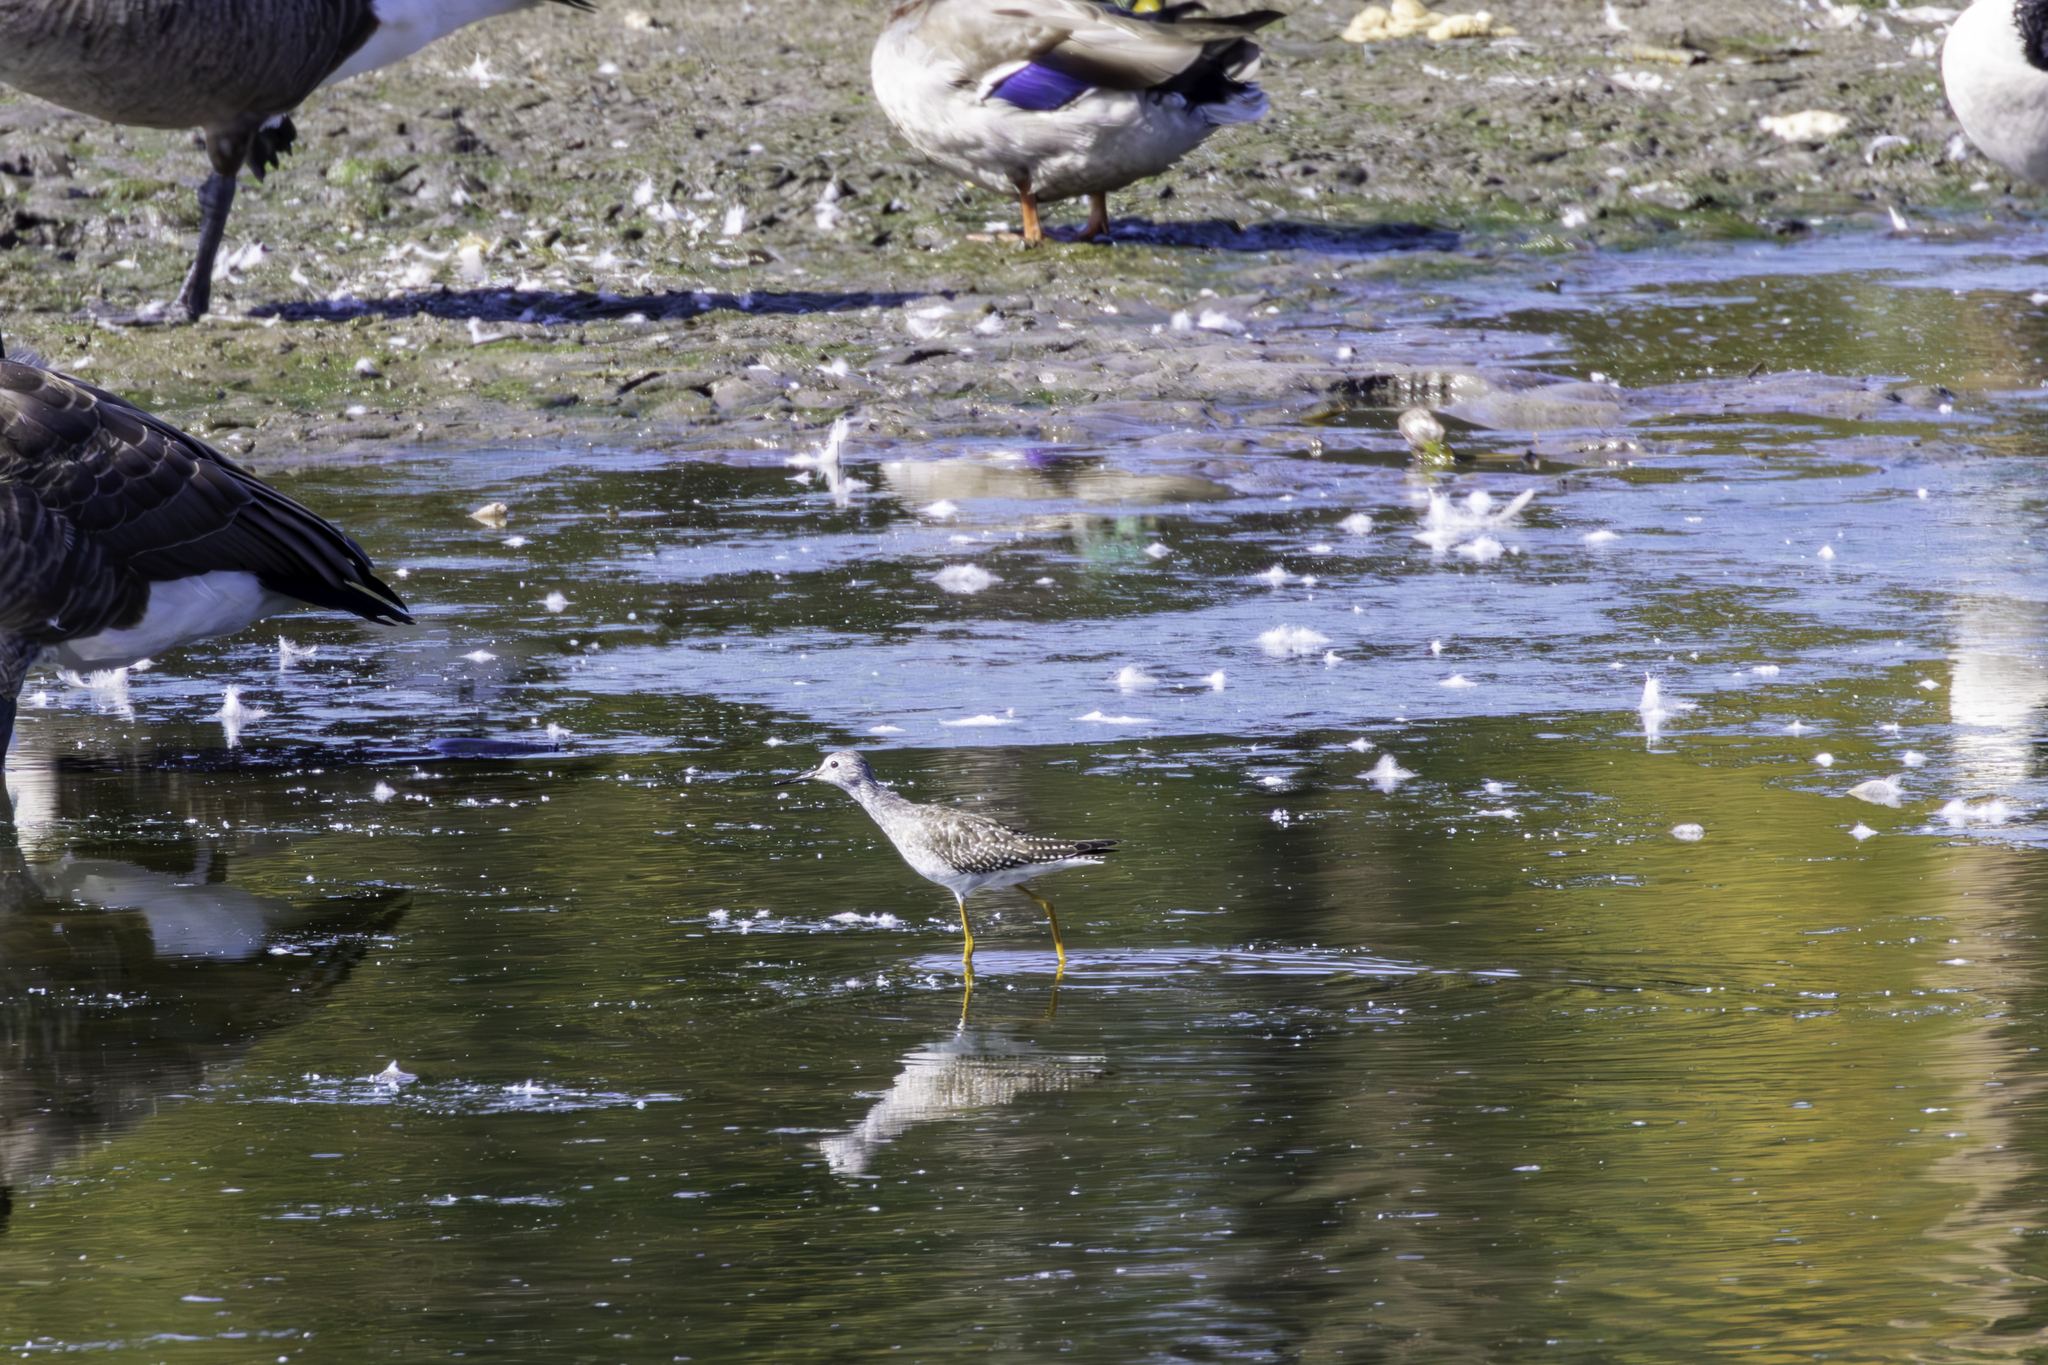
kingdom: Animalia
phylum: Chordata
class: Aves
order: Charadriiformes
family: Scolopacidae
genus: Tringa
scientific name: Tringa flavipes
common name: Lesser yellowlegs
